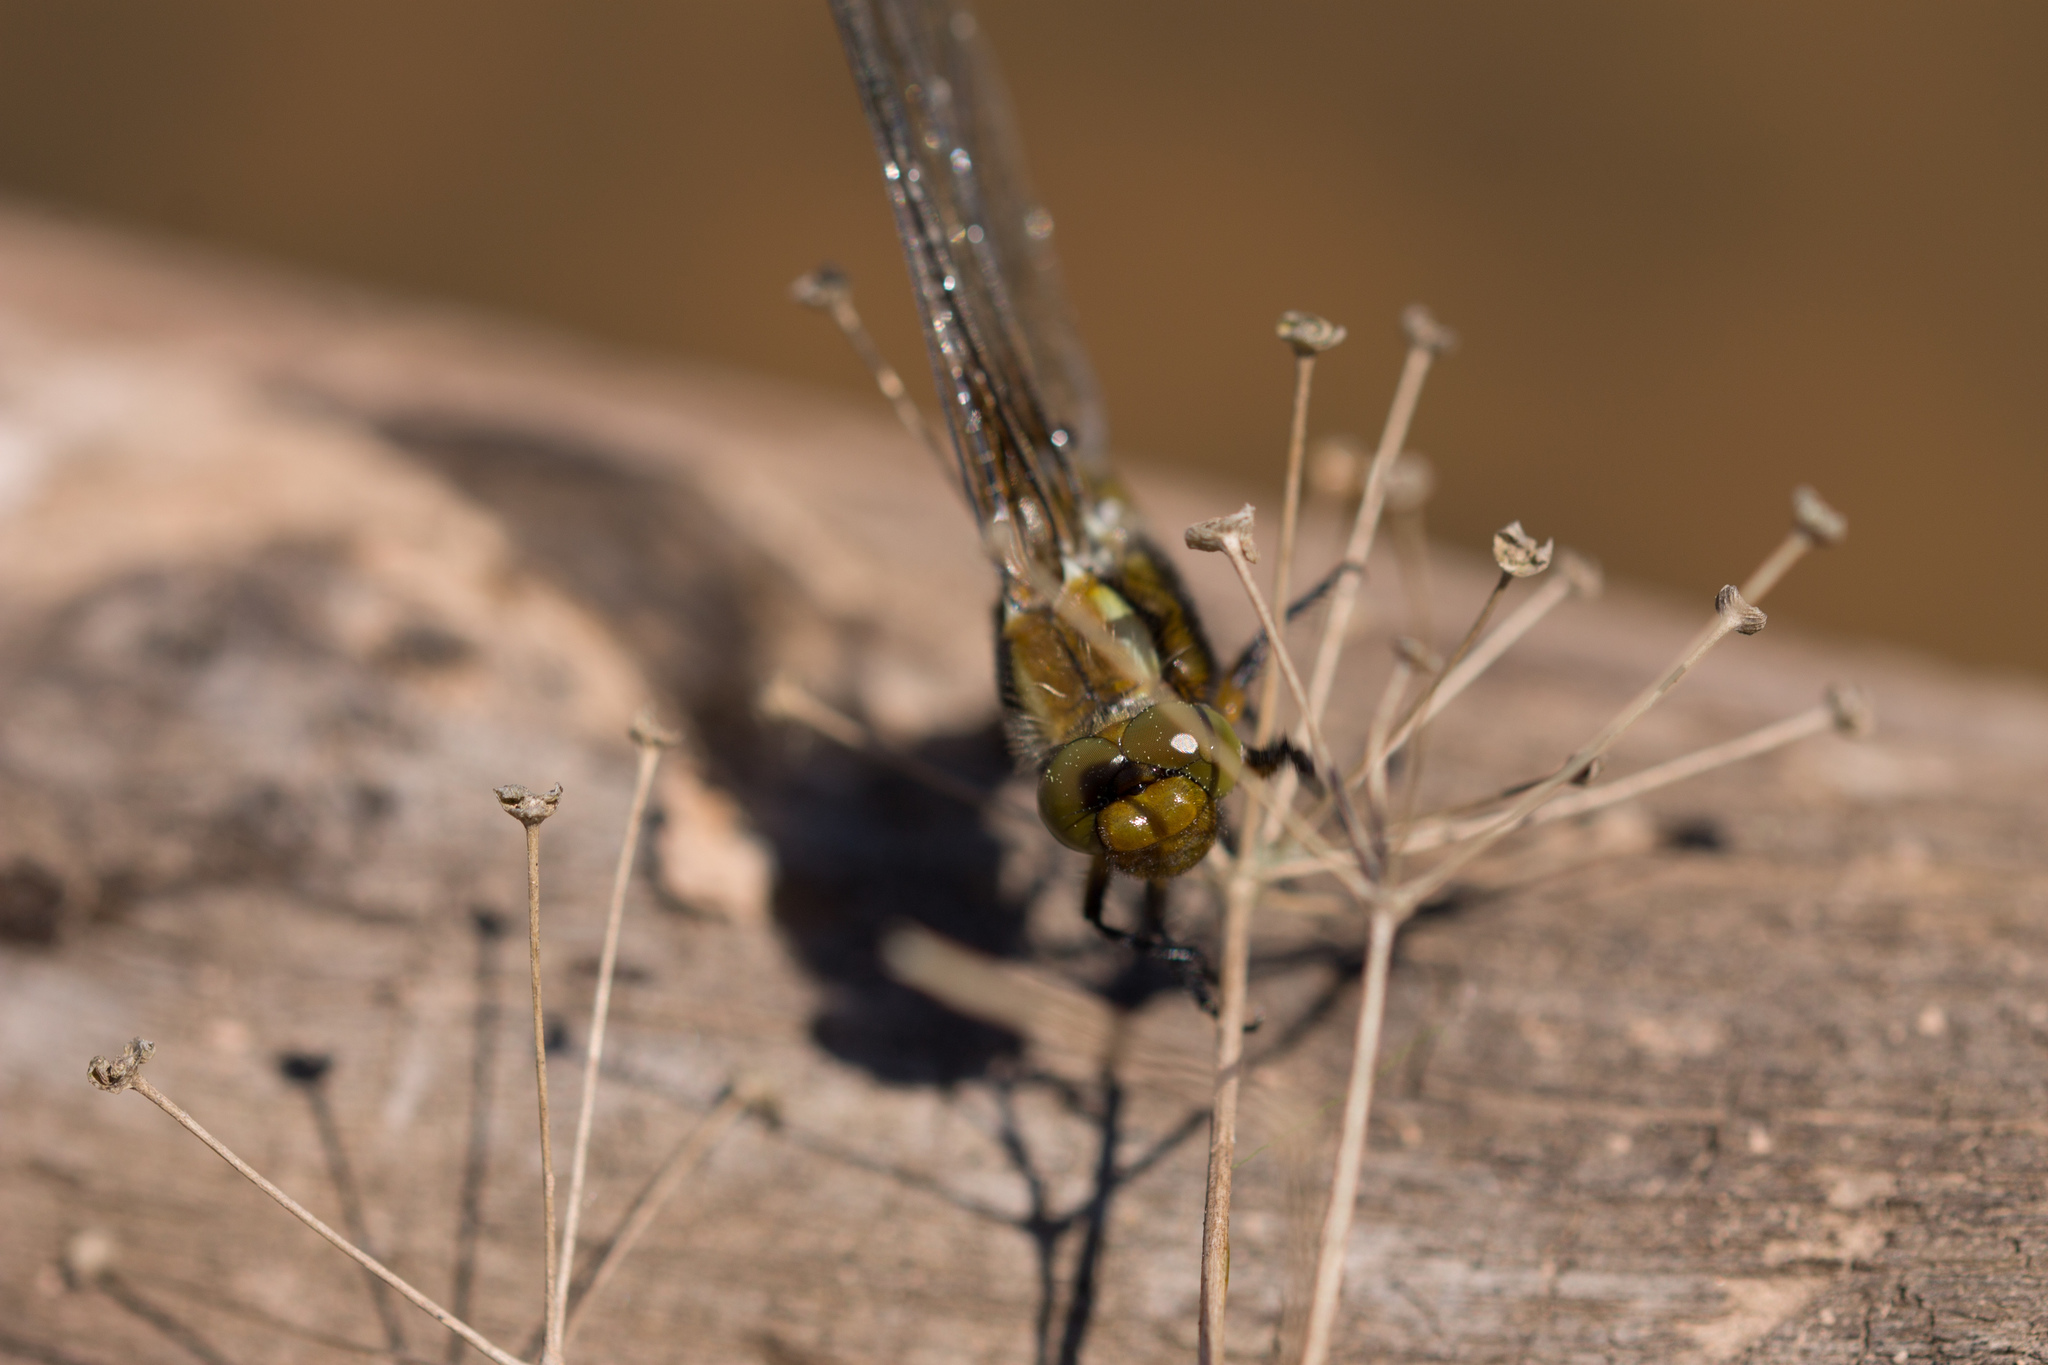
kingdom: Animalia
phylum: Arthropoda
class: Insecta
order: Odonata
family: Libellulidae
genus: Libellula
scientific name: Libellula depressa
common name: Broad-bodied chaser
